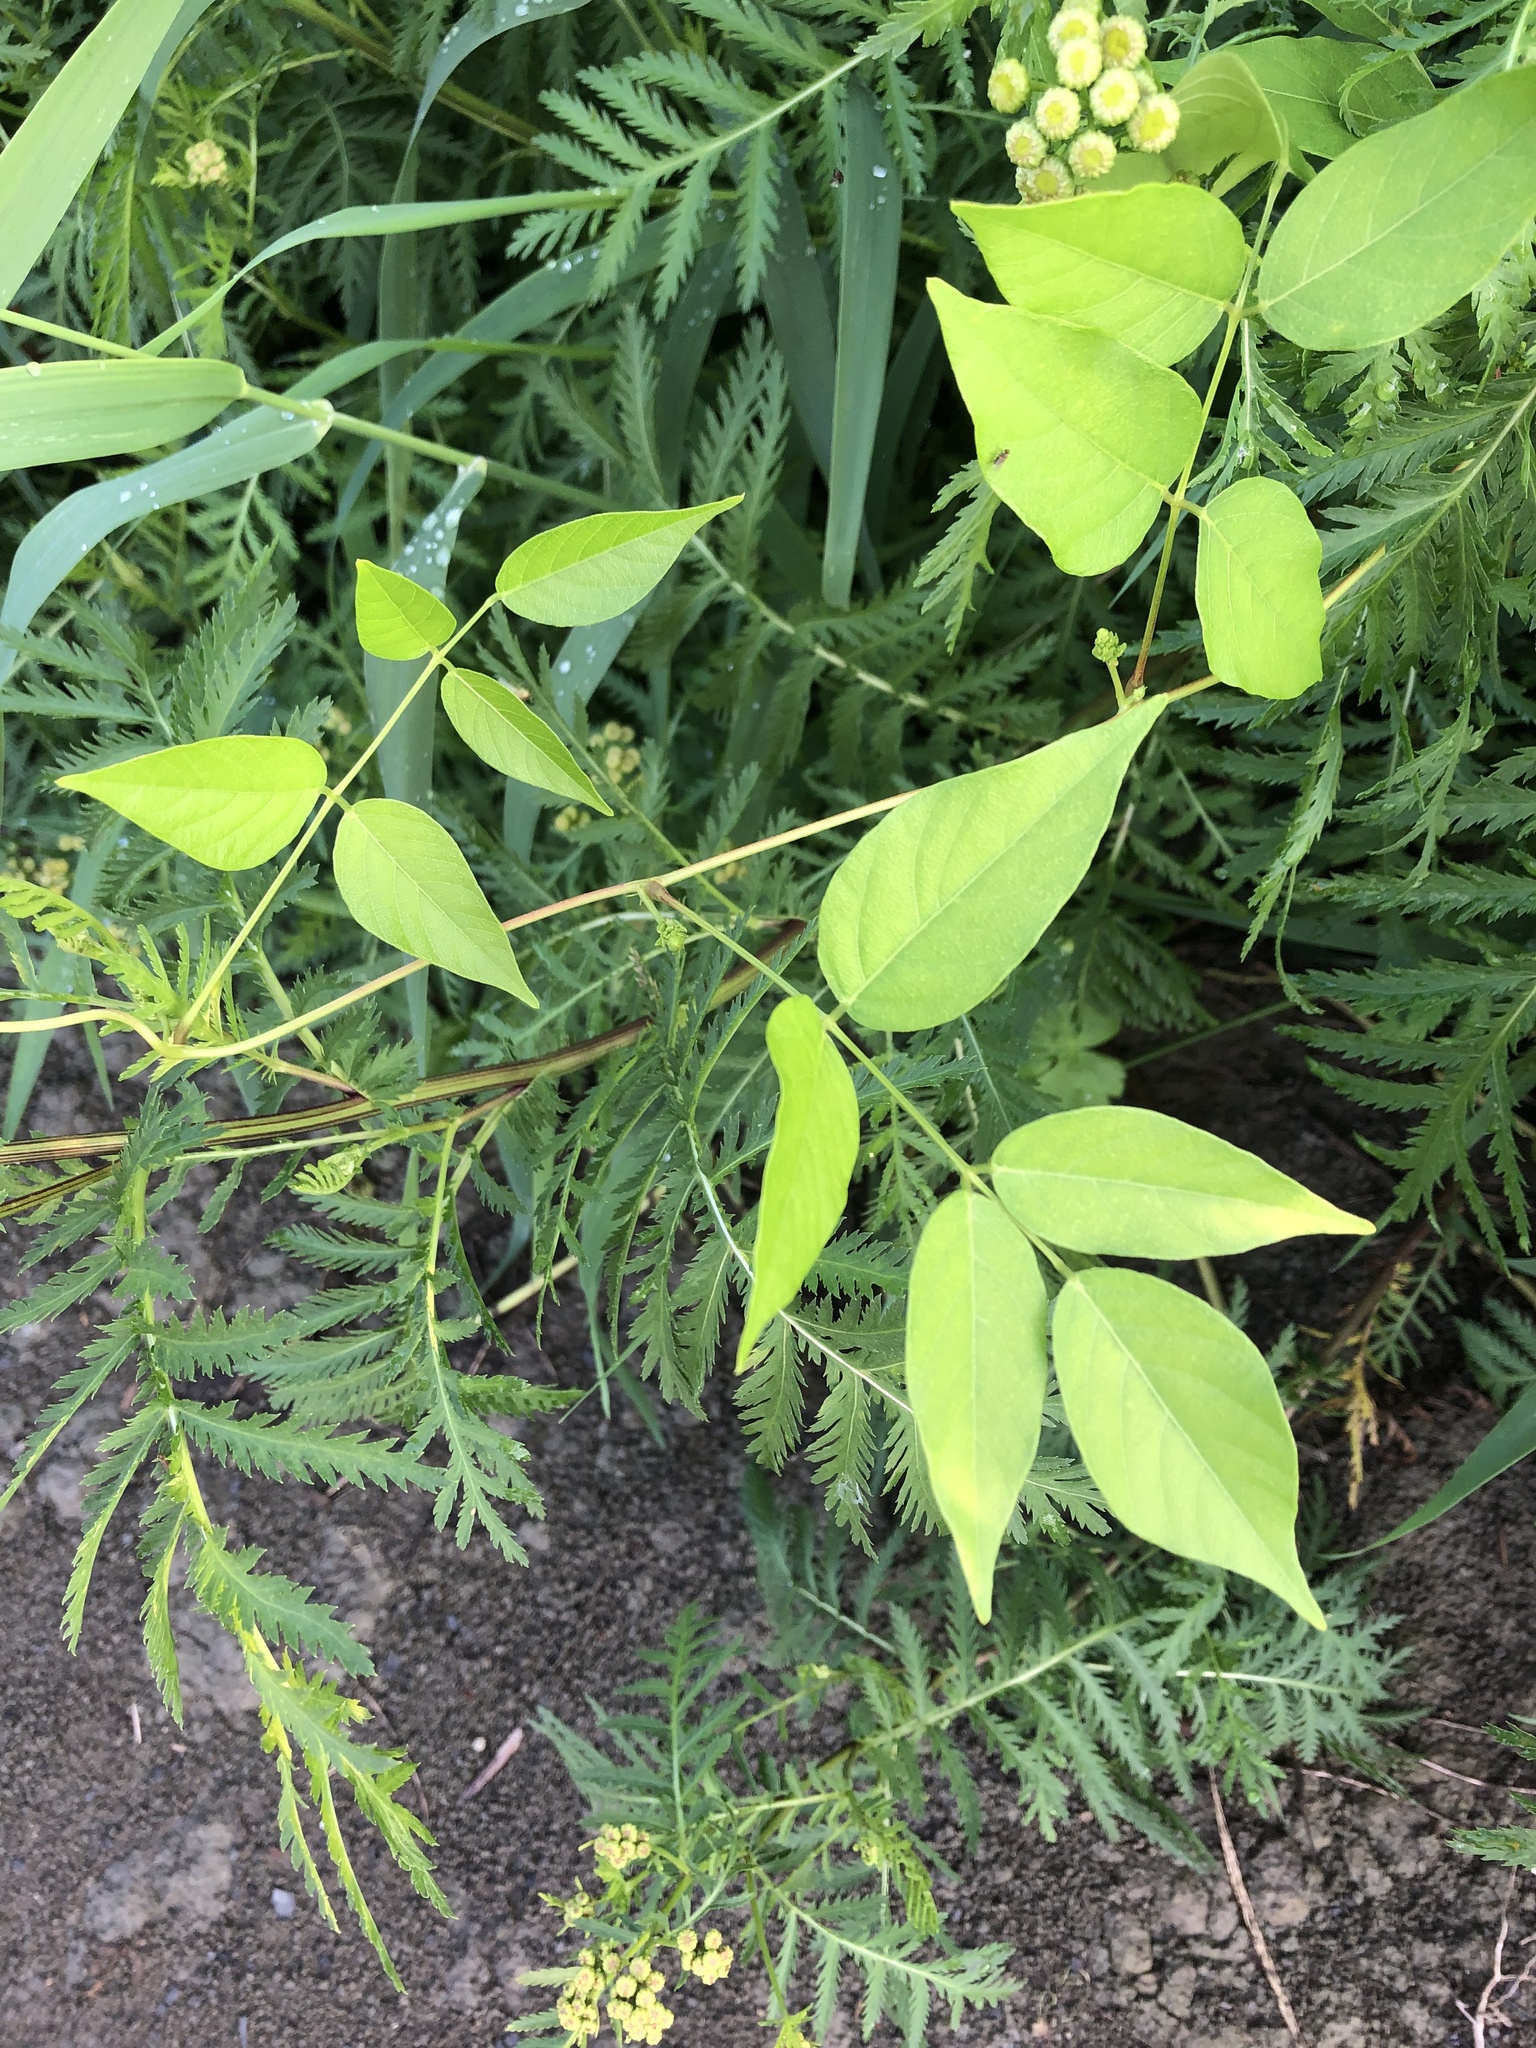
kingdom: Plantae
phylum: Tracheophyta
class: Magnoliopsida
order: Fabales
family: Fabaceae
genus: Apios
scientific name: Apios americana
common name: American potato-bean
